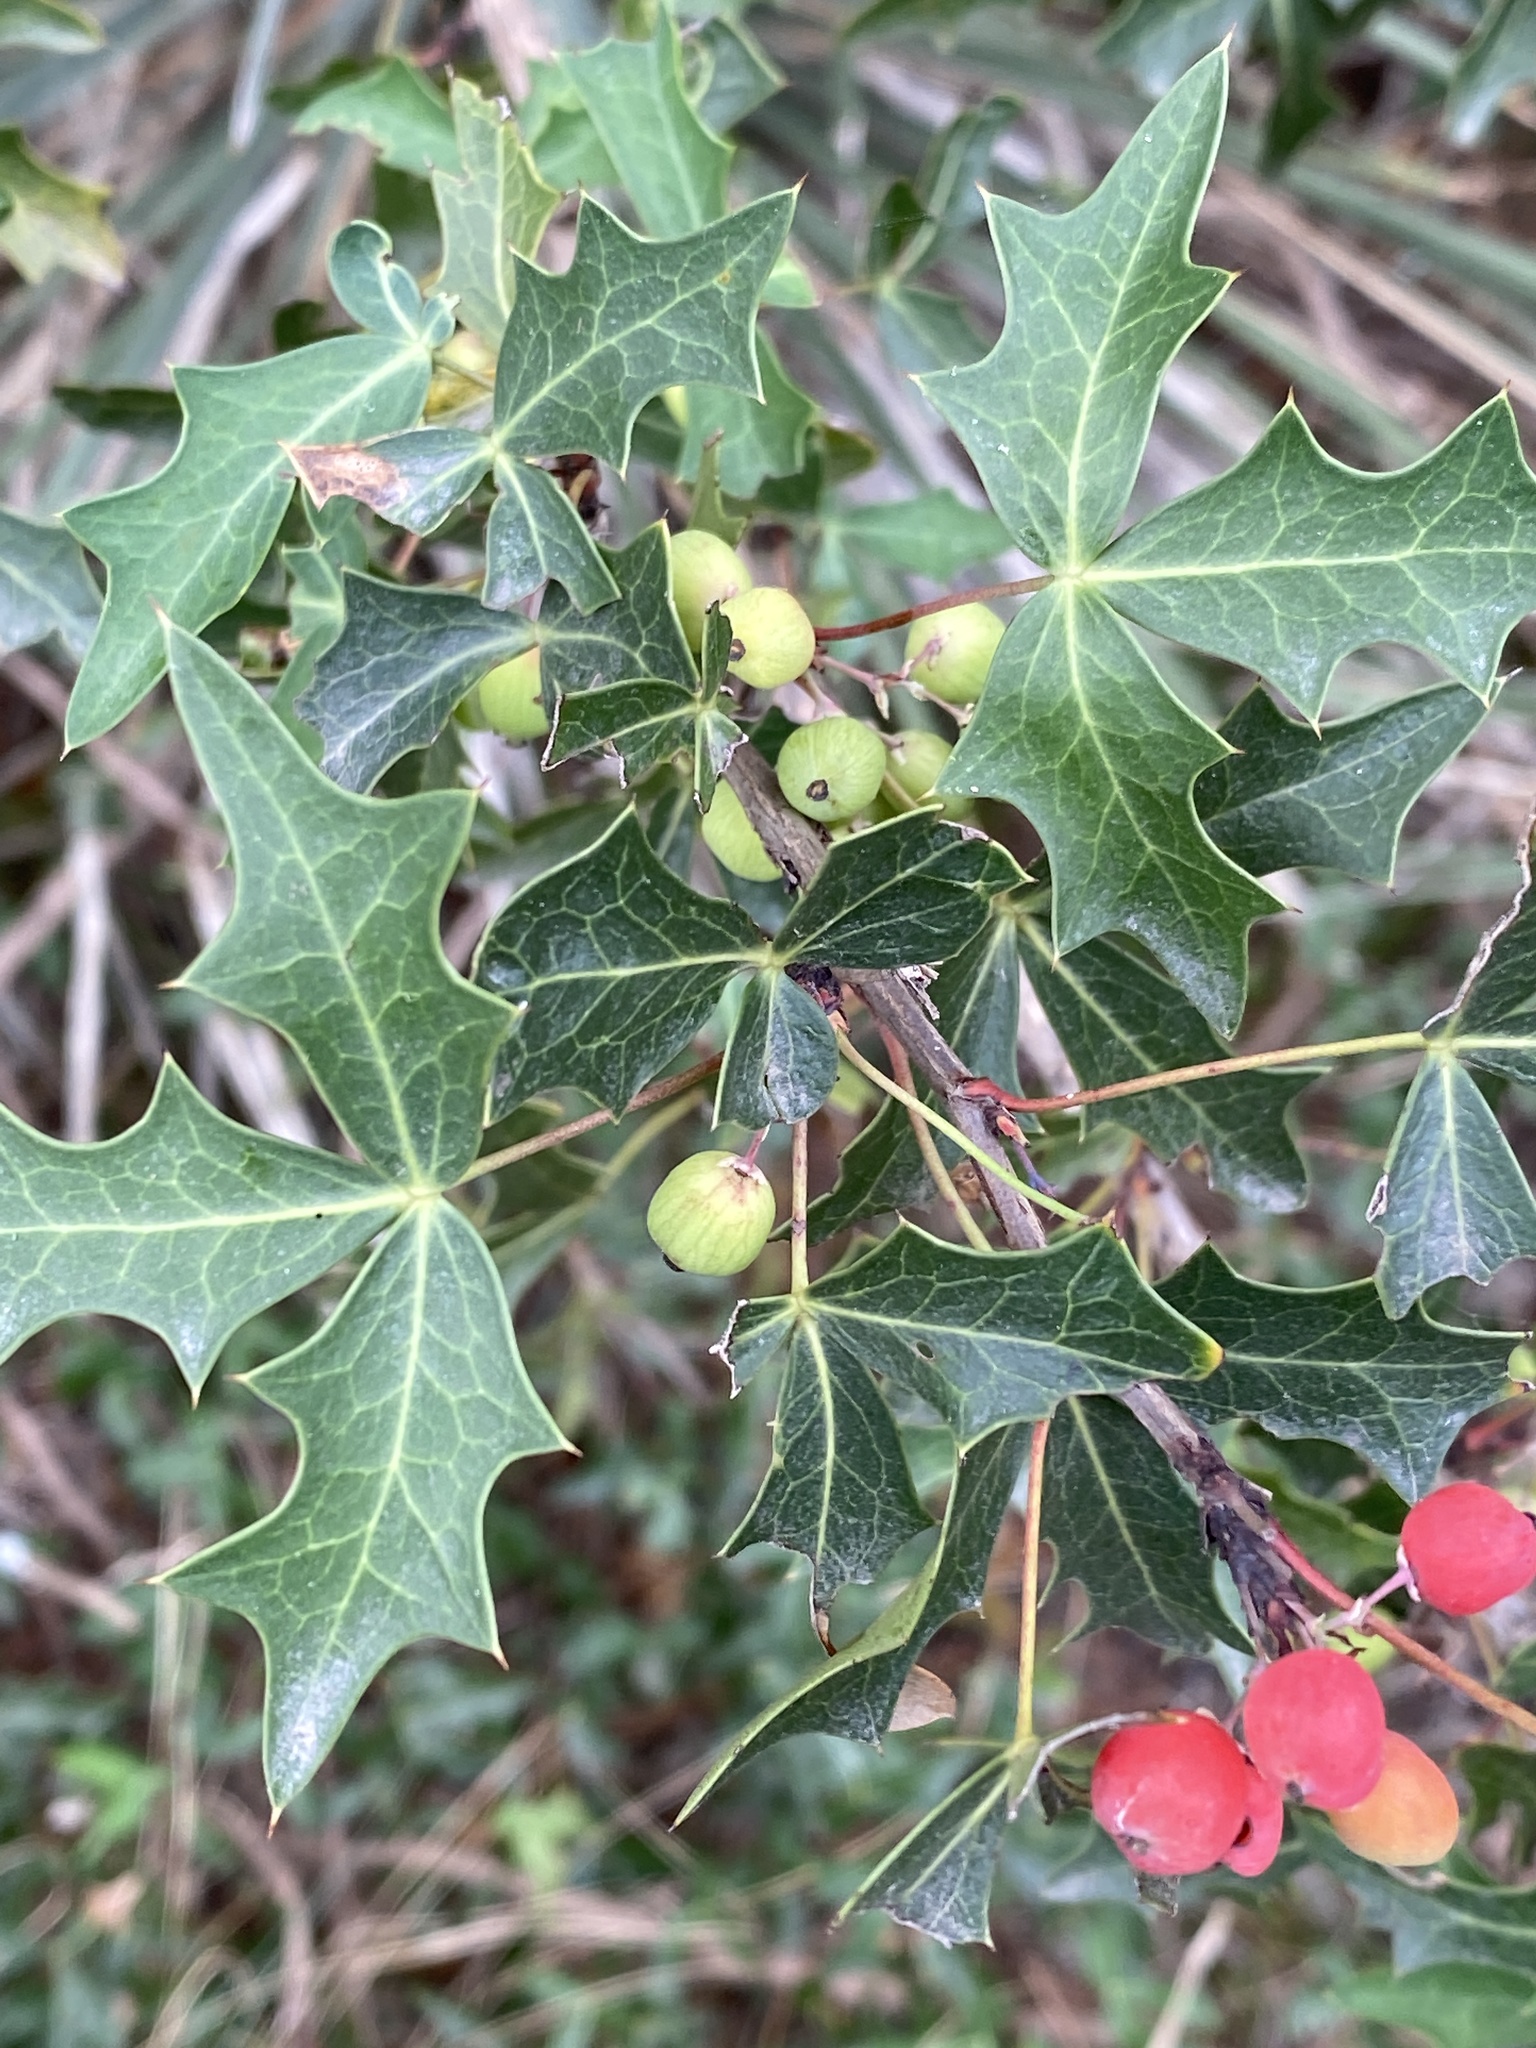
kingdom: Plantae
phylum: Tracheophyta
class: Magnoliopsida
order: Ranunculales
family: Berberidaceae
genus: Alloberberis
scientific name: Alloberberis trifoliolata
